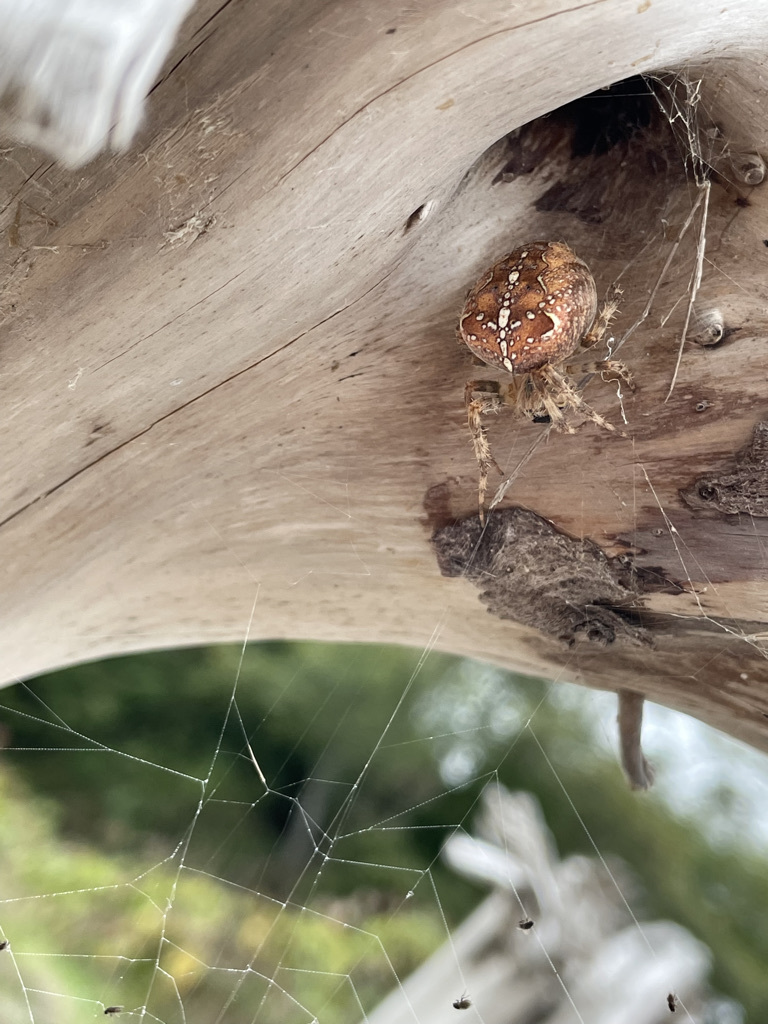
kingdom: Animalia
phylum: Arthropoda
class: Arachnida
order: Araneae
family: Araneidae
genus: Araneus
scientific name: Araneus diadematus
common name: Cross orbweaver
